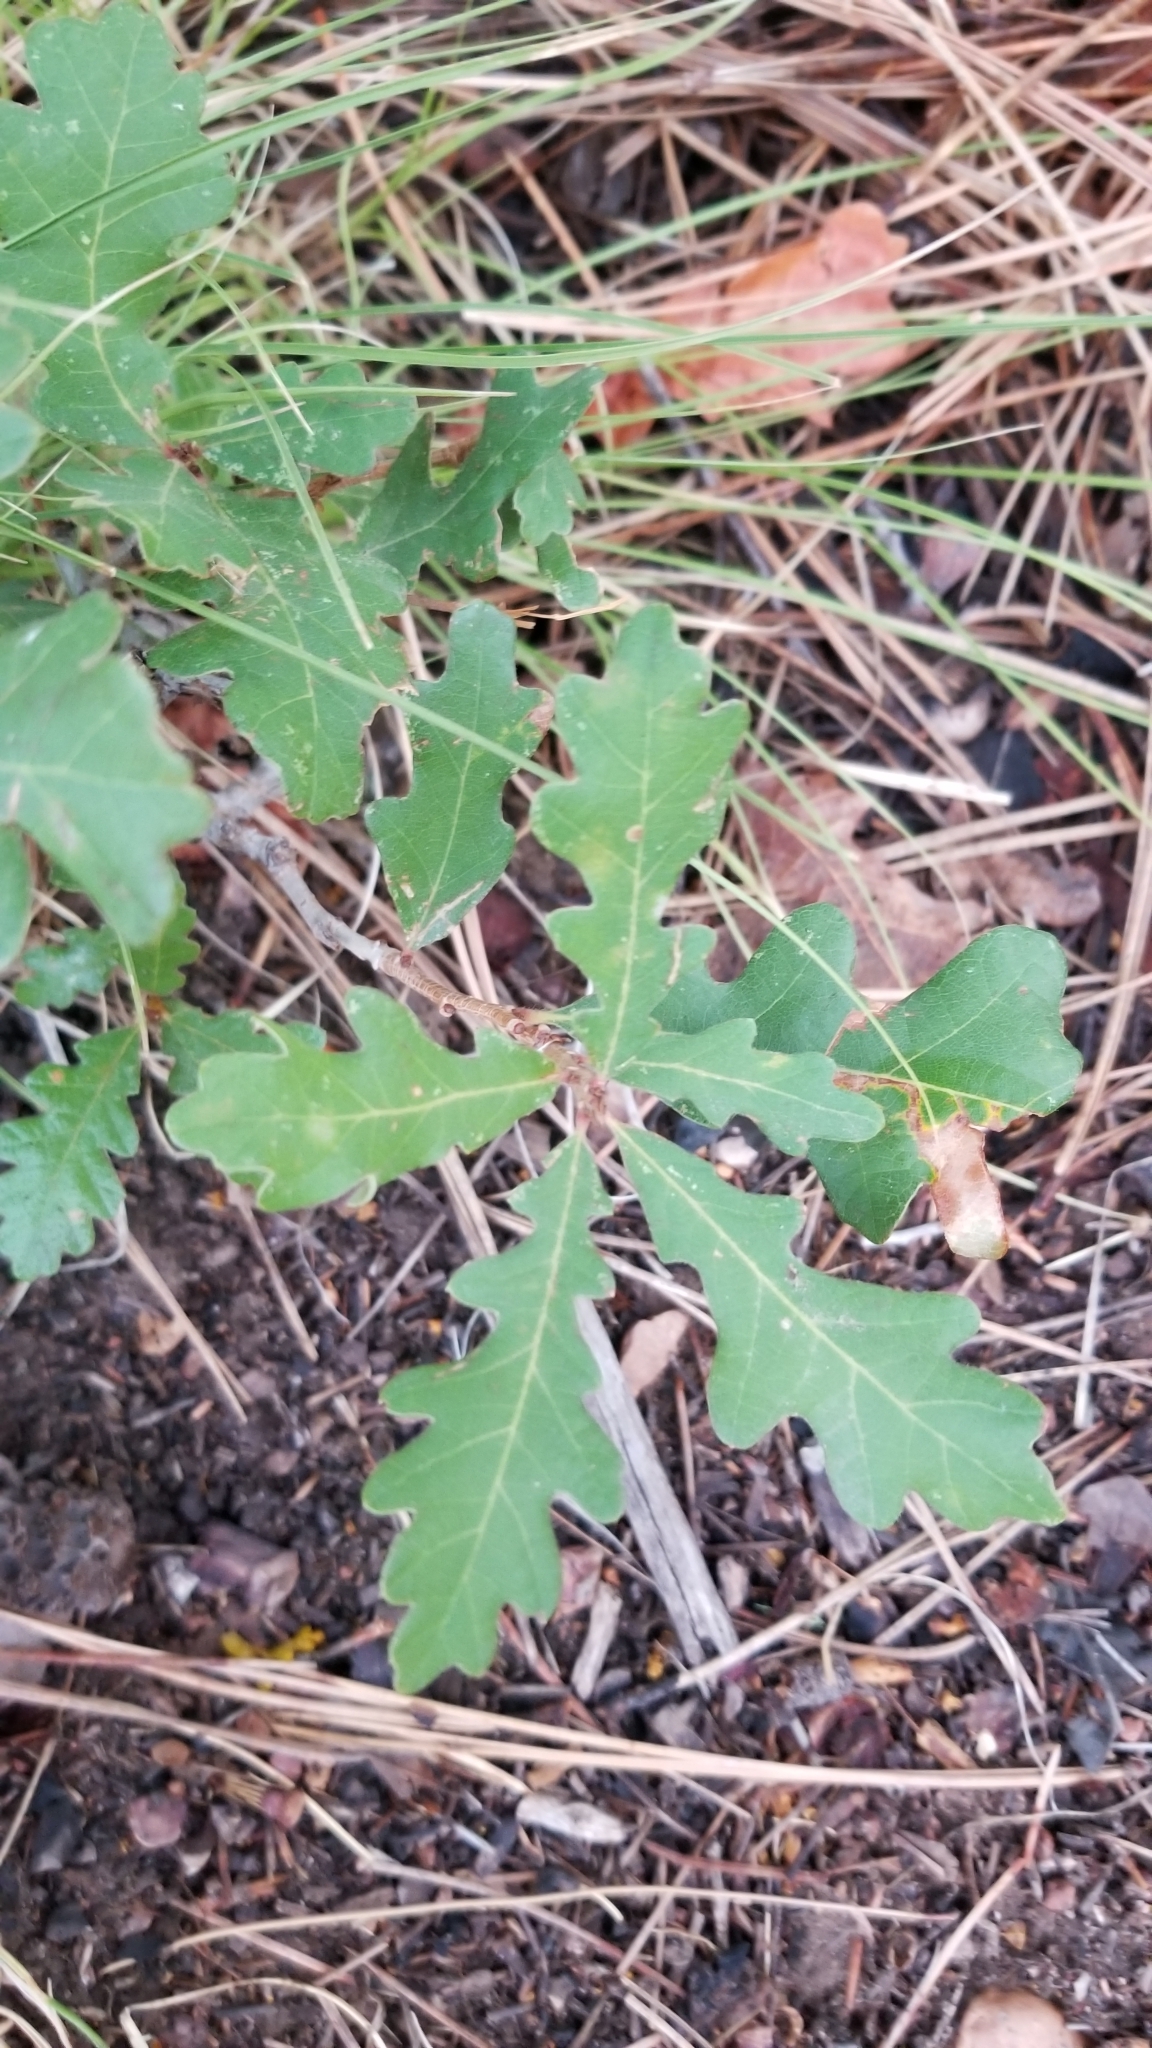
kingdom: Plantae
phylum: Tracheophyta
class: Magnoliopsida
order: Fagales
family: Fagaceae
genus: Quercus
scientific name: Quercus gambelii
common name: Gambel oak
